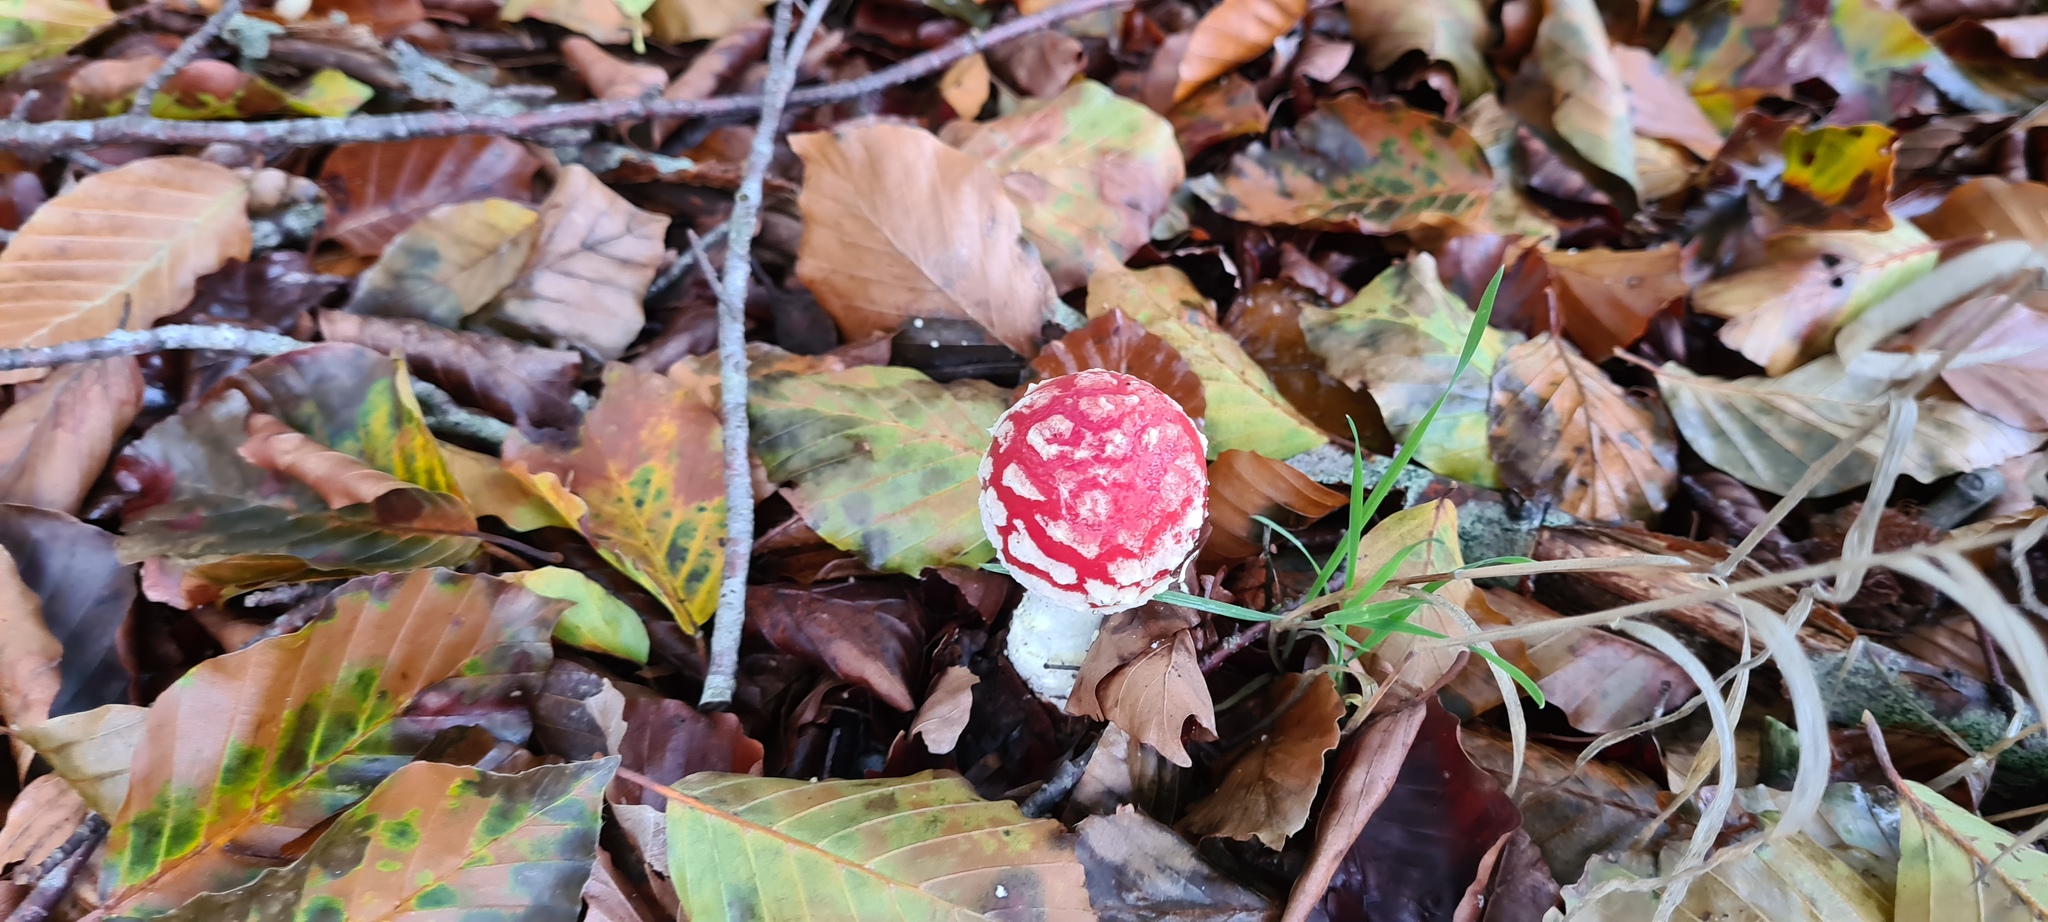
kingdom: Fungi
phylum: Basidiomycota
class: Agaricomycetes
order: Agaricales
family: Amanitaceae
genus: Amanita
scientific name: Amanita muscaria
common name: Fly agaric
